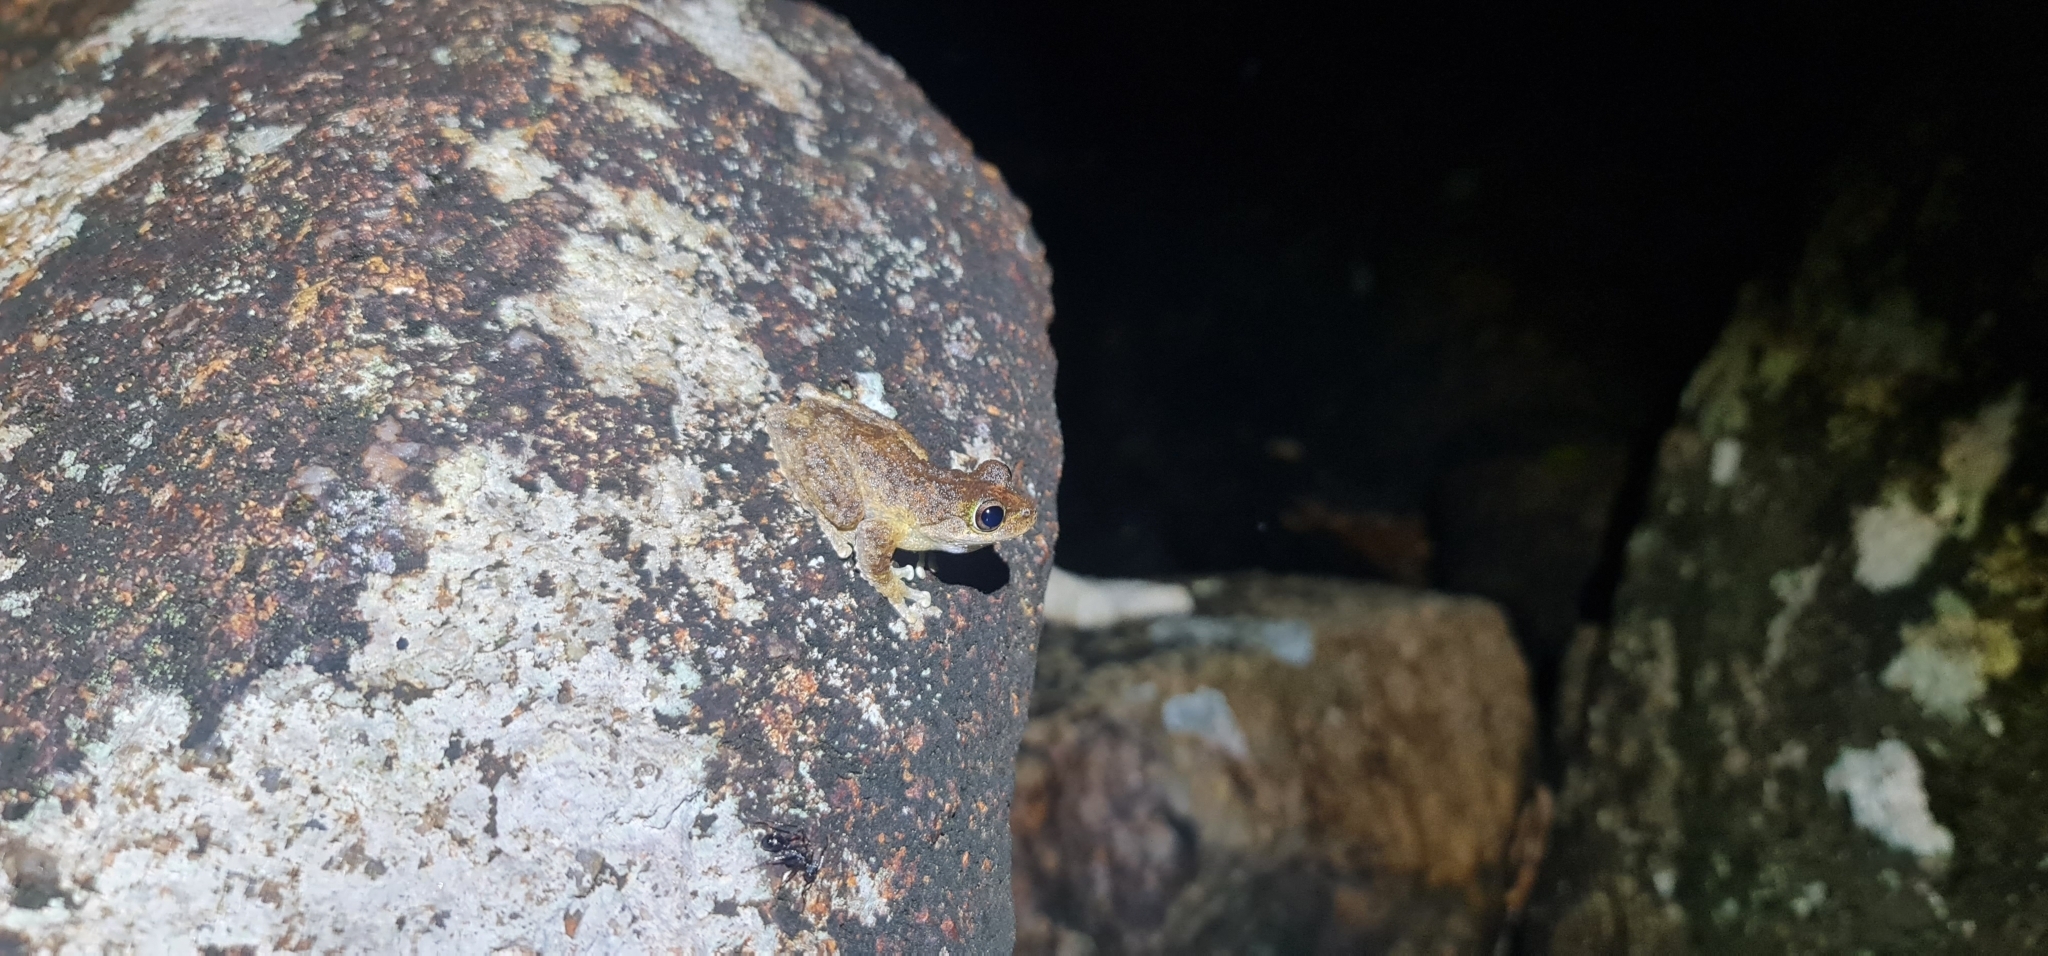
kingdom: Animalia
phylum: Chordata
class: Amphibia
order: Anura
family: Pelodryadidae
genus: Ranoidea
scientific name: Ranoidea serrata
